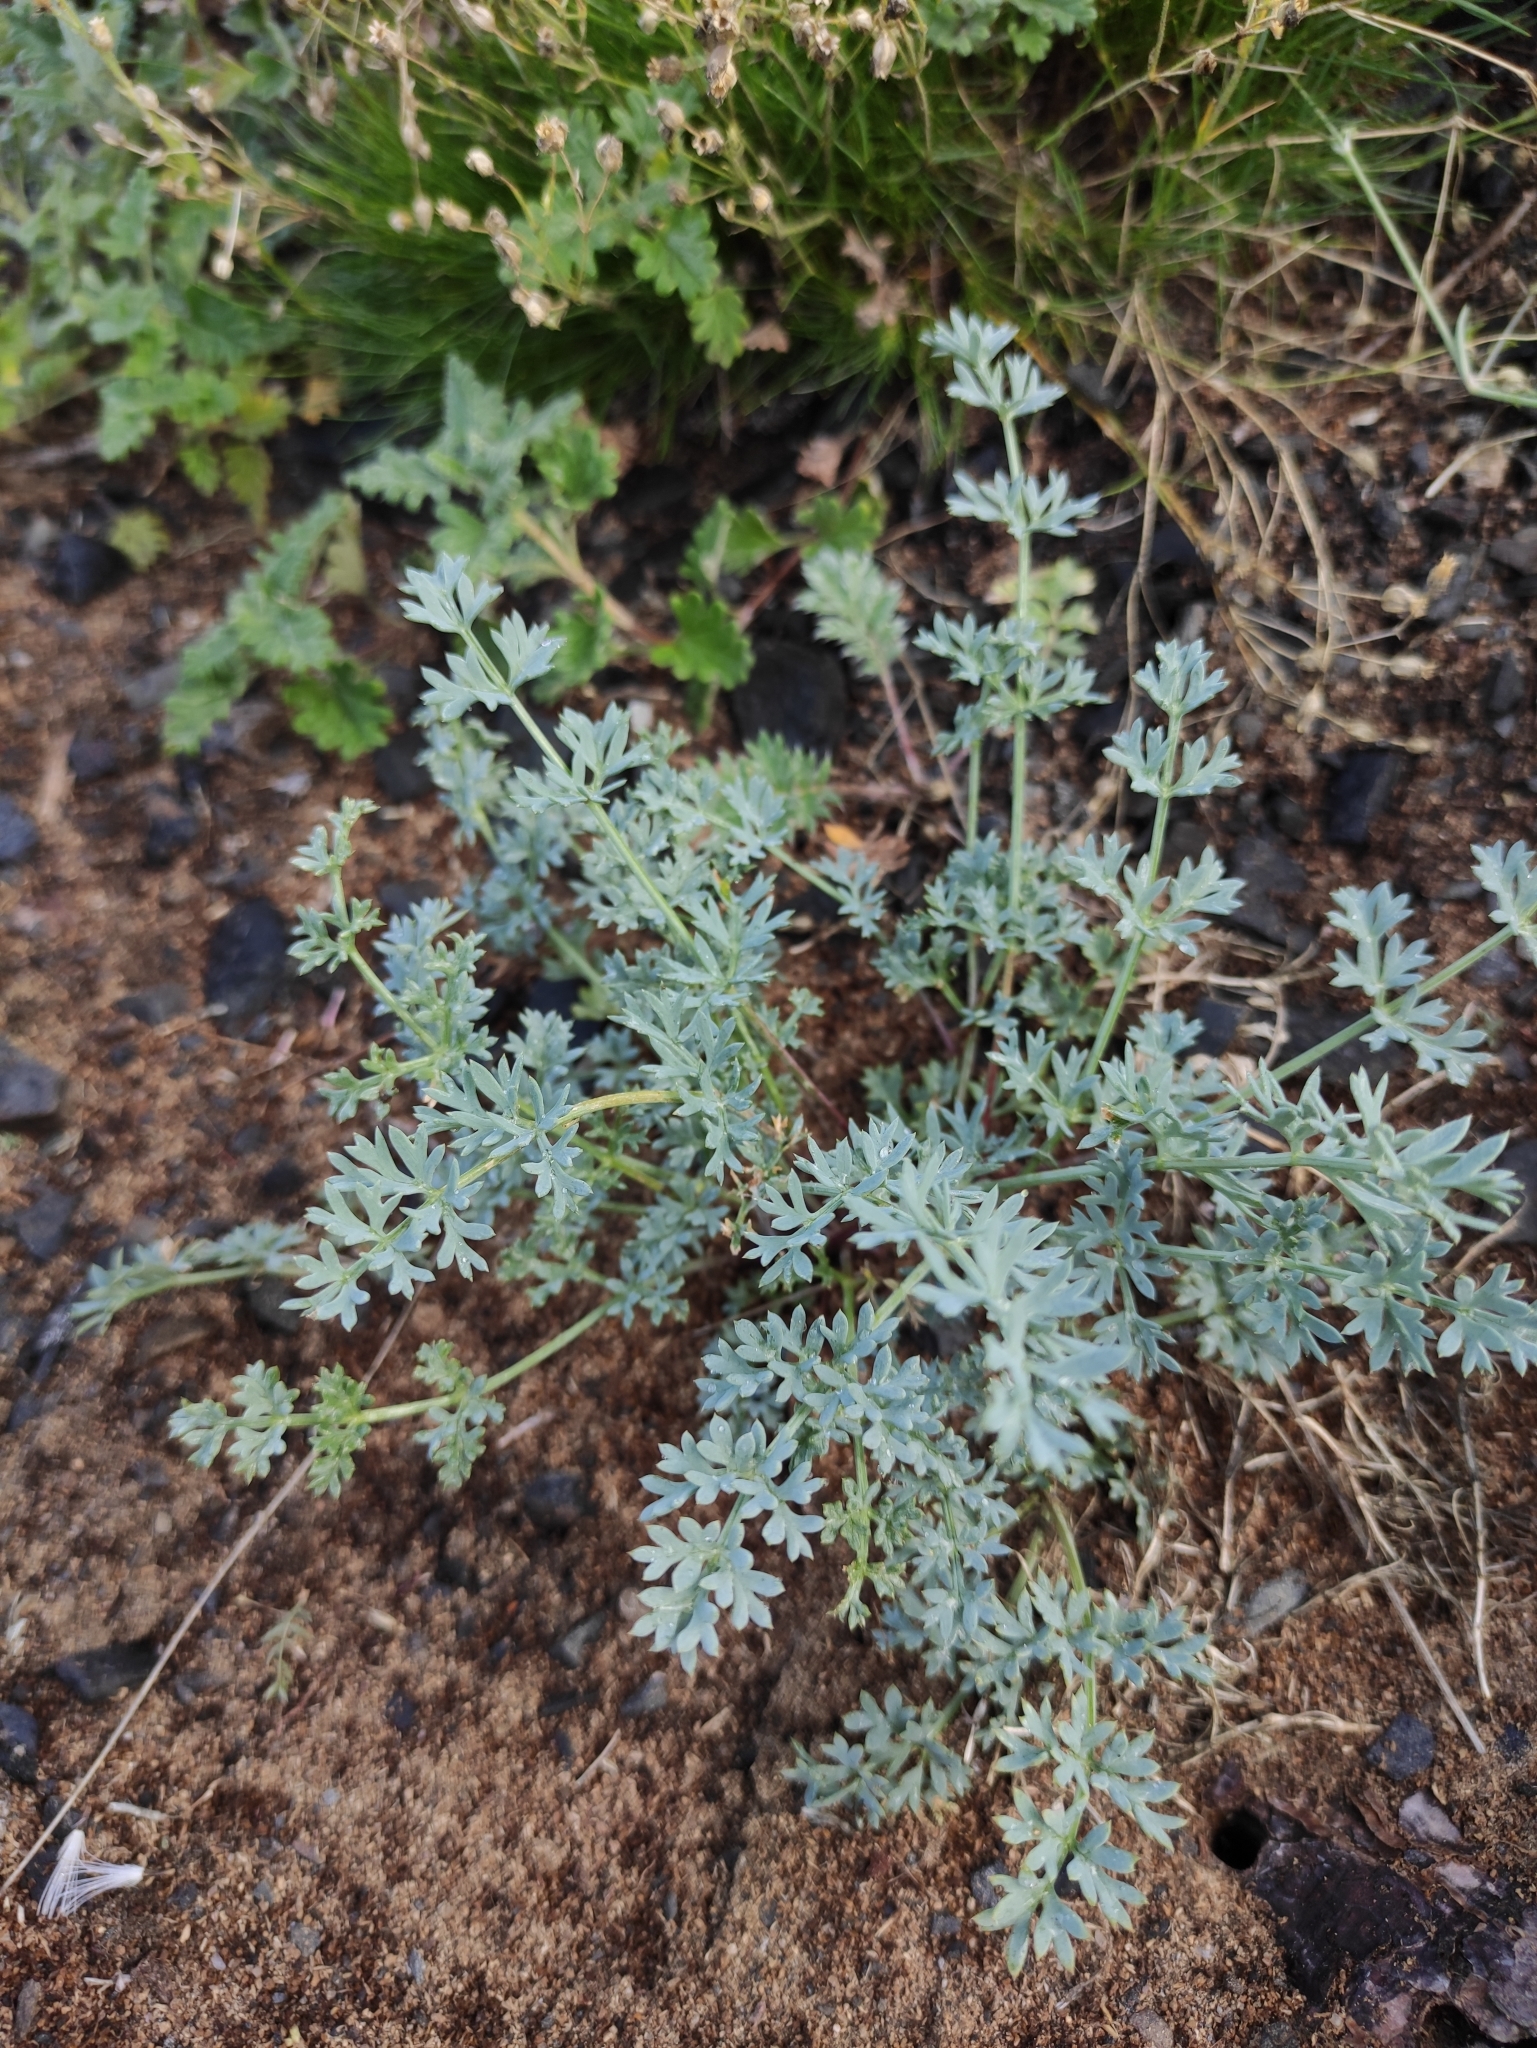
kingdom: Plantae
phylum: Tracheophyta
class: Magnoliopsida
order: Apiales
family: Apiaceae
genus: Phlojodicarpus
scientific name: Phlojodicarpus sibiricus
